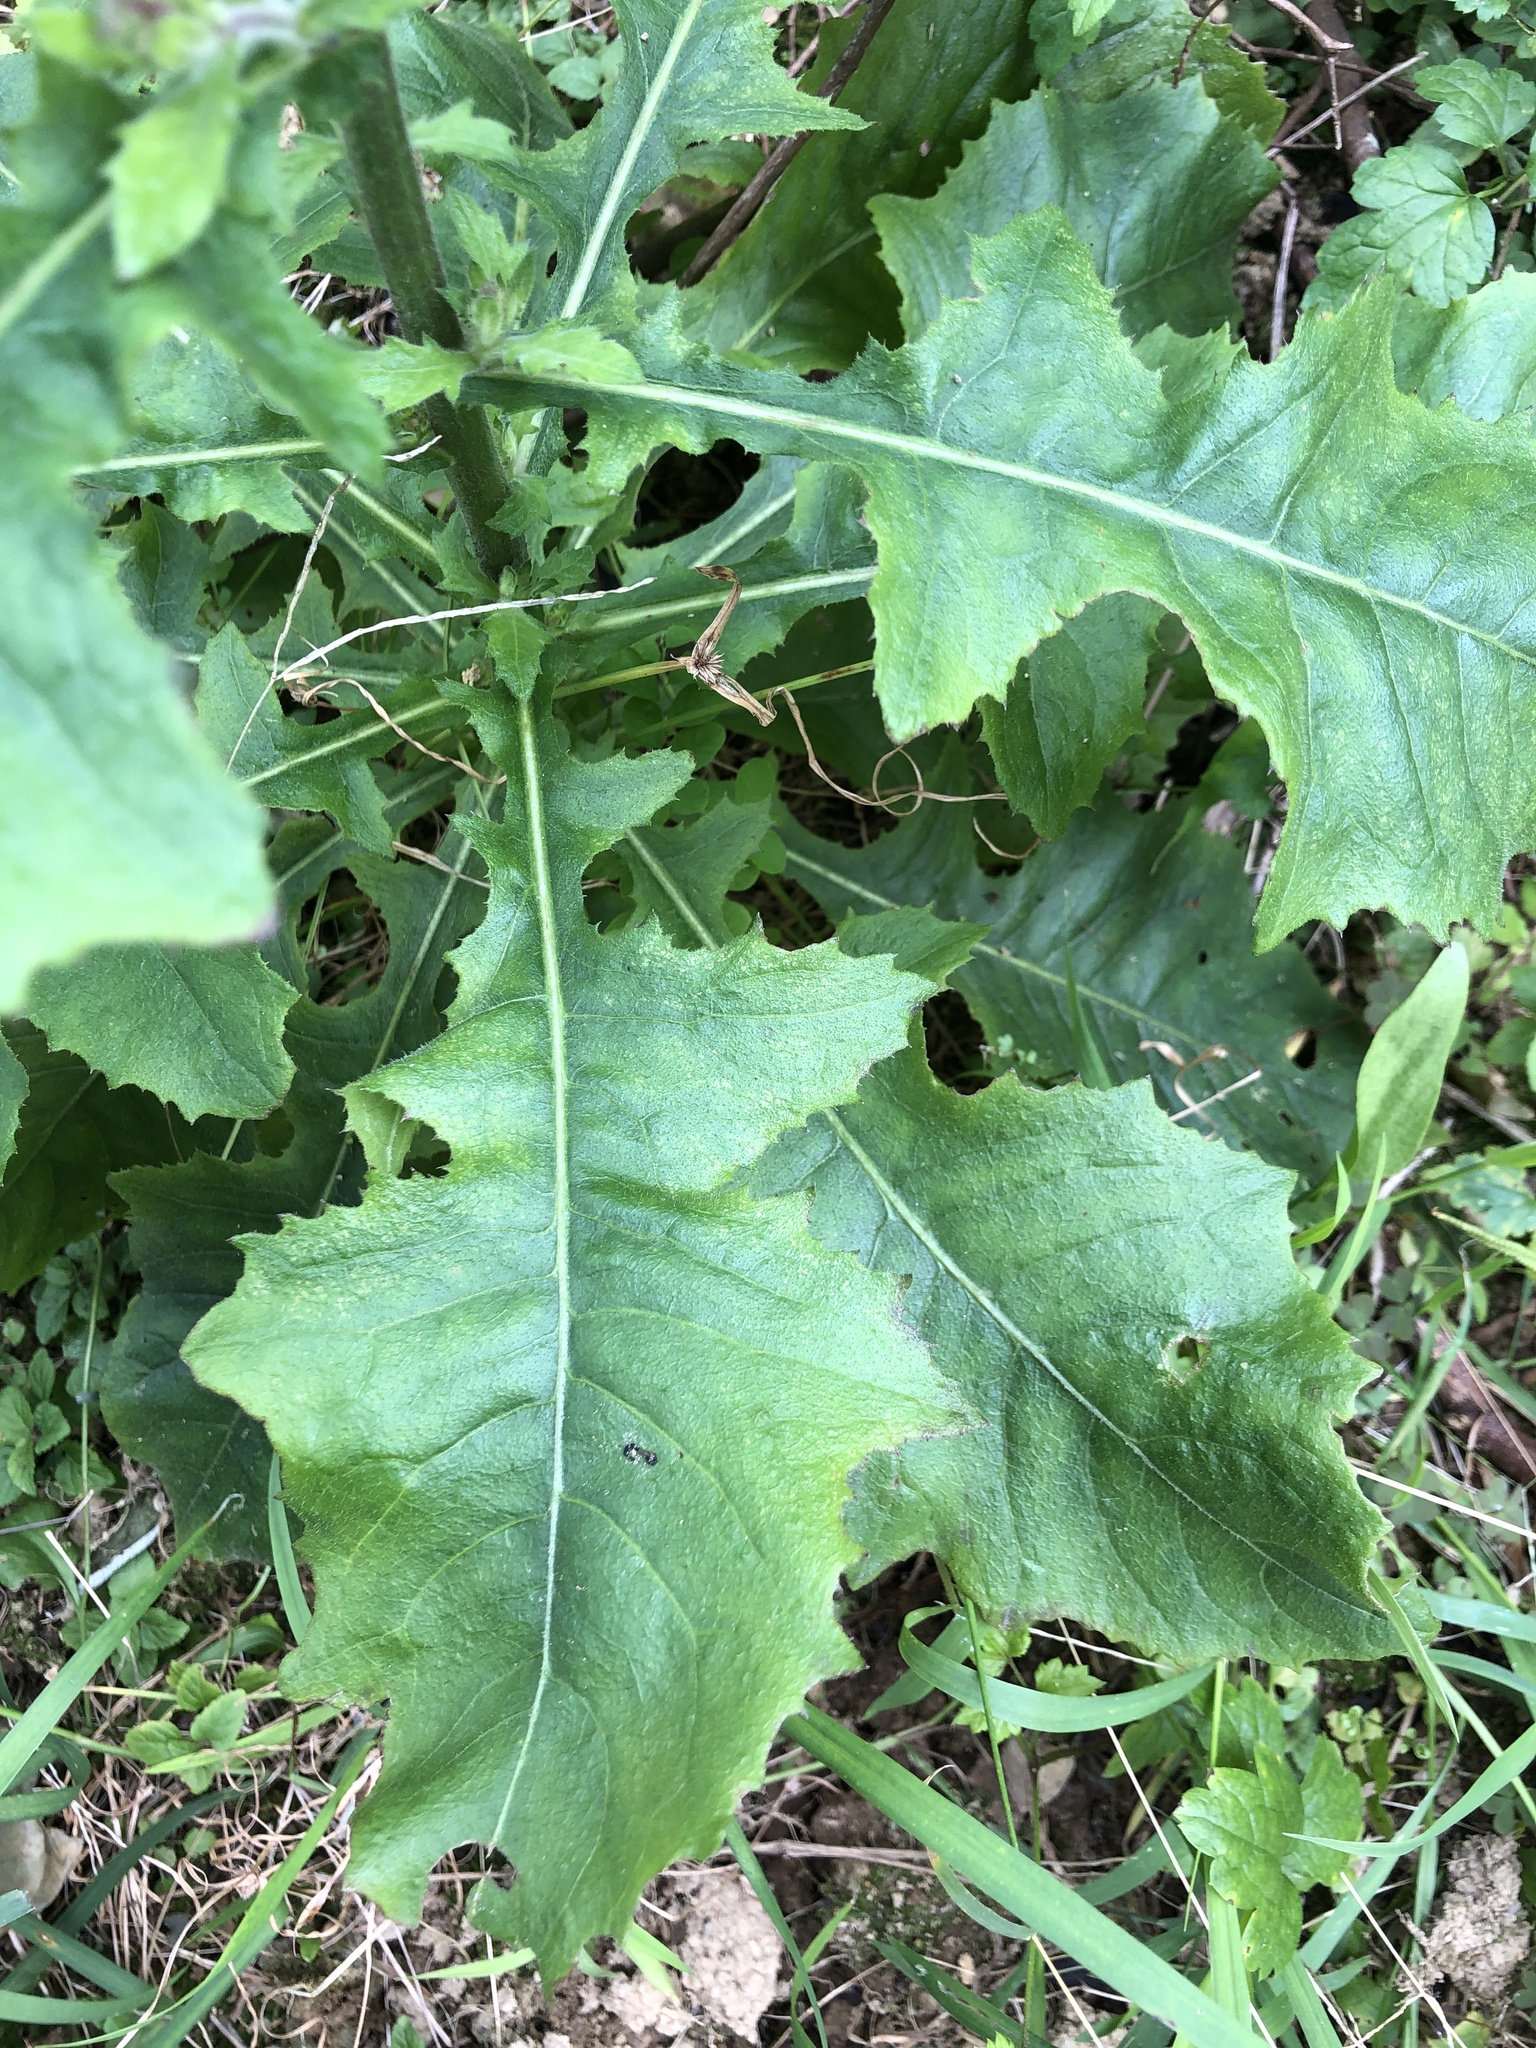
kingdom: Plantae
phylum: Tracheophyta
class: Magnoliopsida
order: Asterales
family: Asteraceae
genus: Blumea
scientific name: Blumea sinuata
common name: Cutleaf false oxtongue
